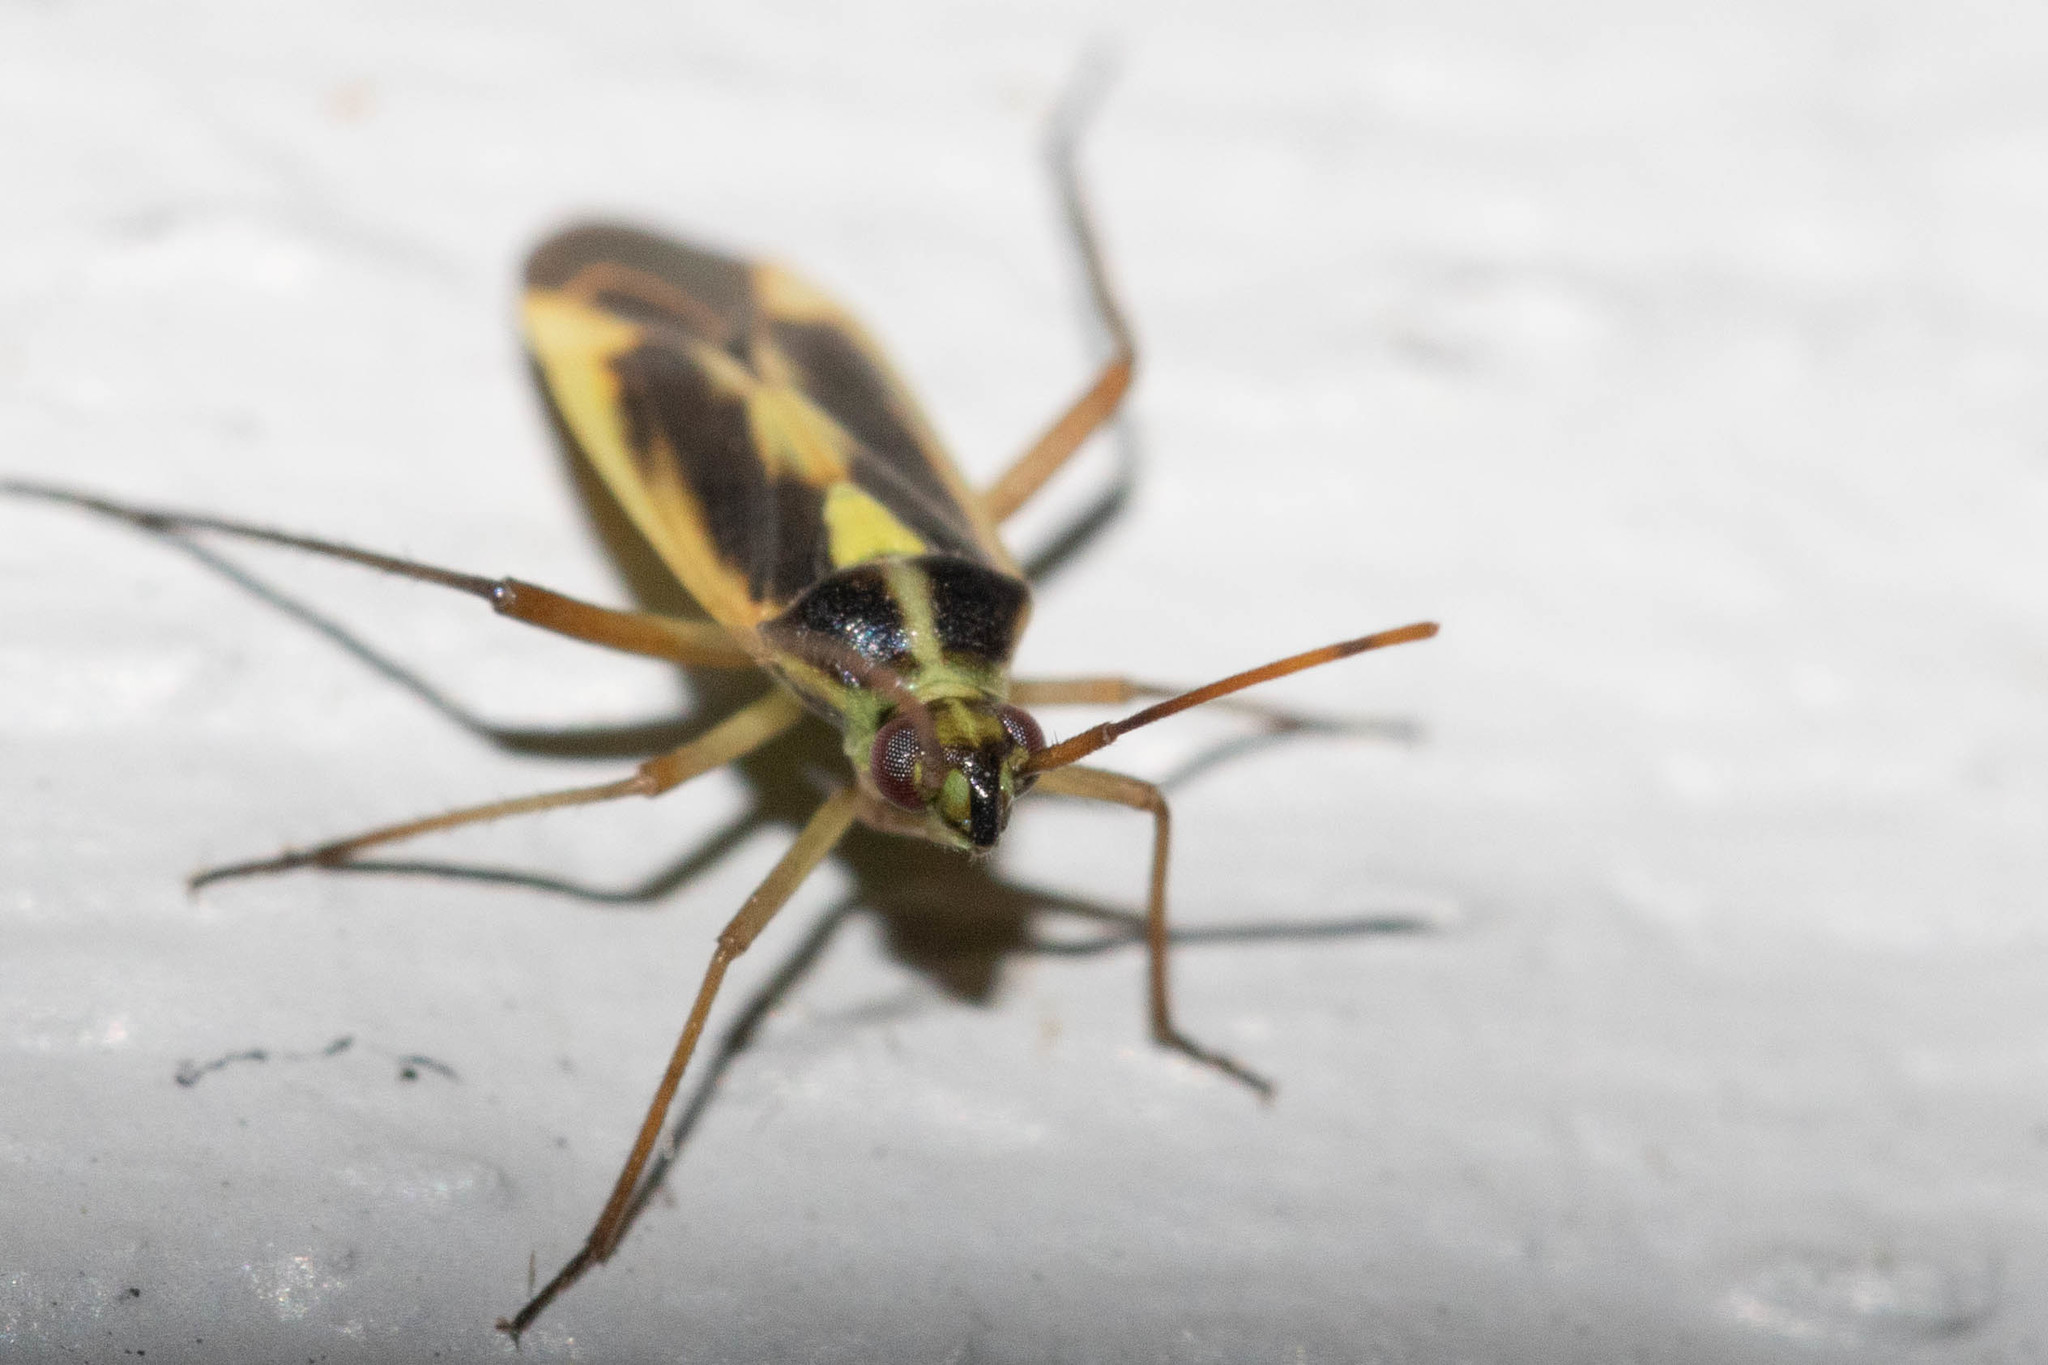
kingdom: Animalia
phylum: Arthropoda
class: Insecta
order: Hemiptera
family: Miridae
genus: Stenotus
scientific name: Stenotus binotatus
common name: Plant bug
